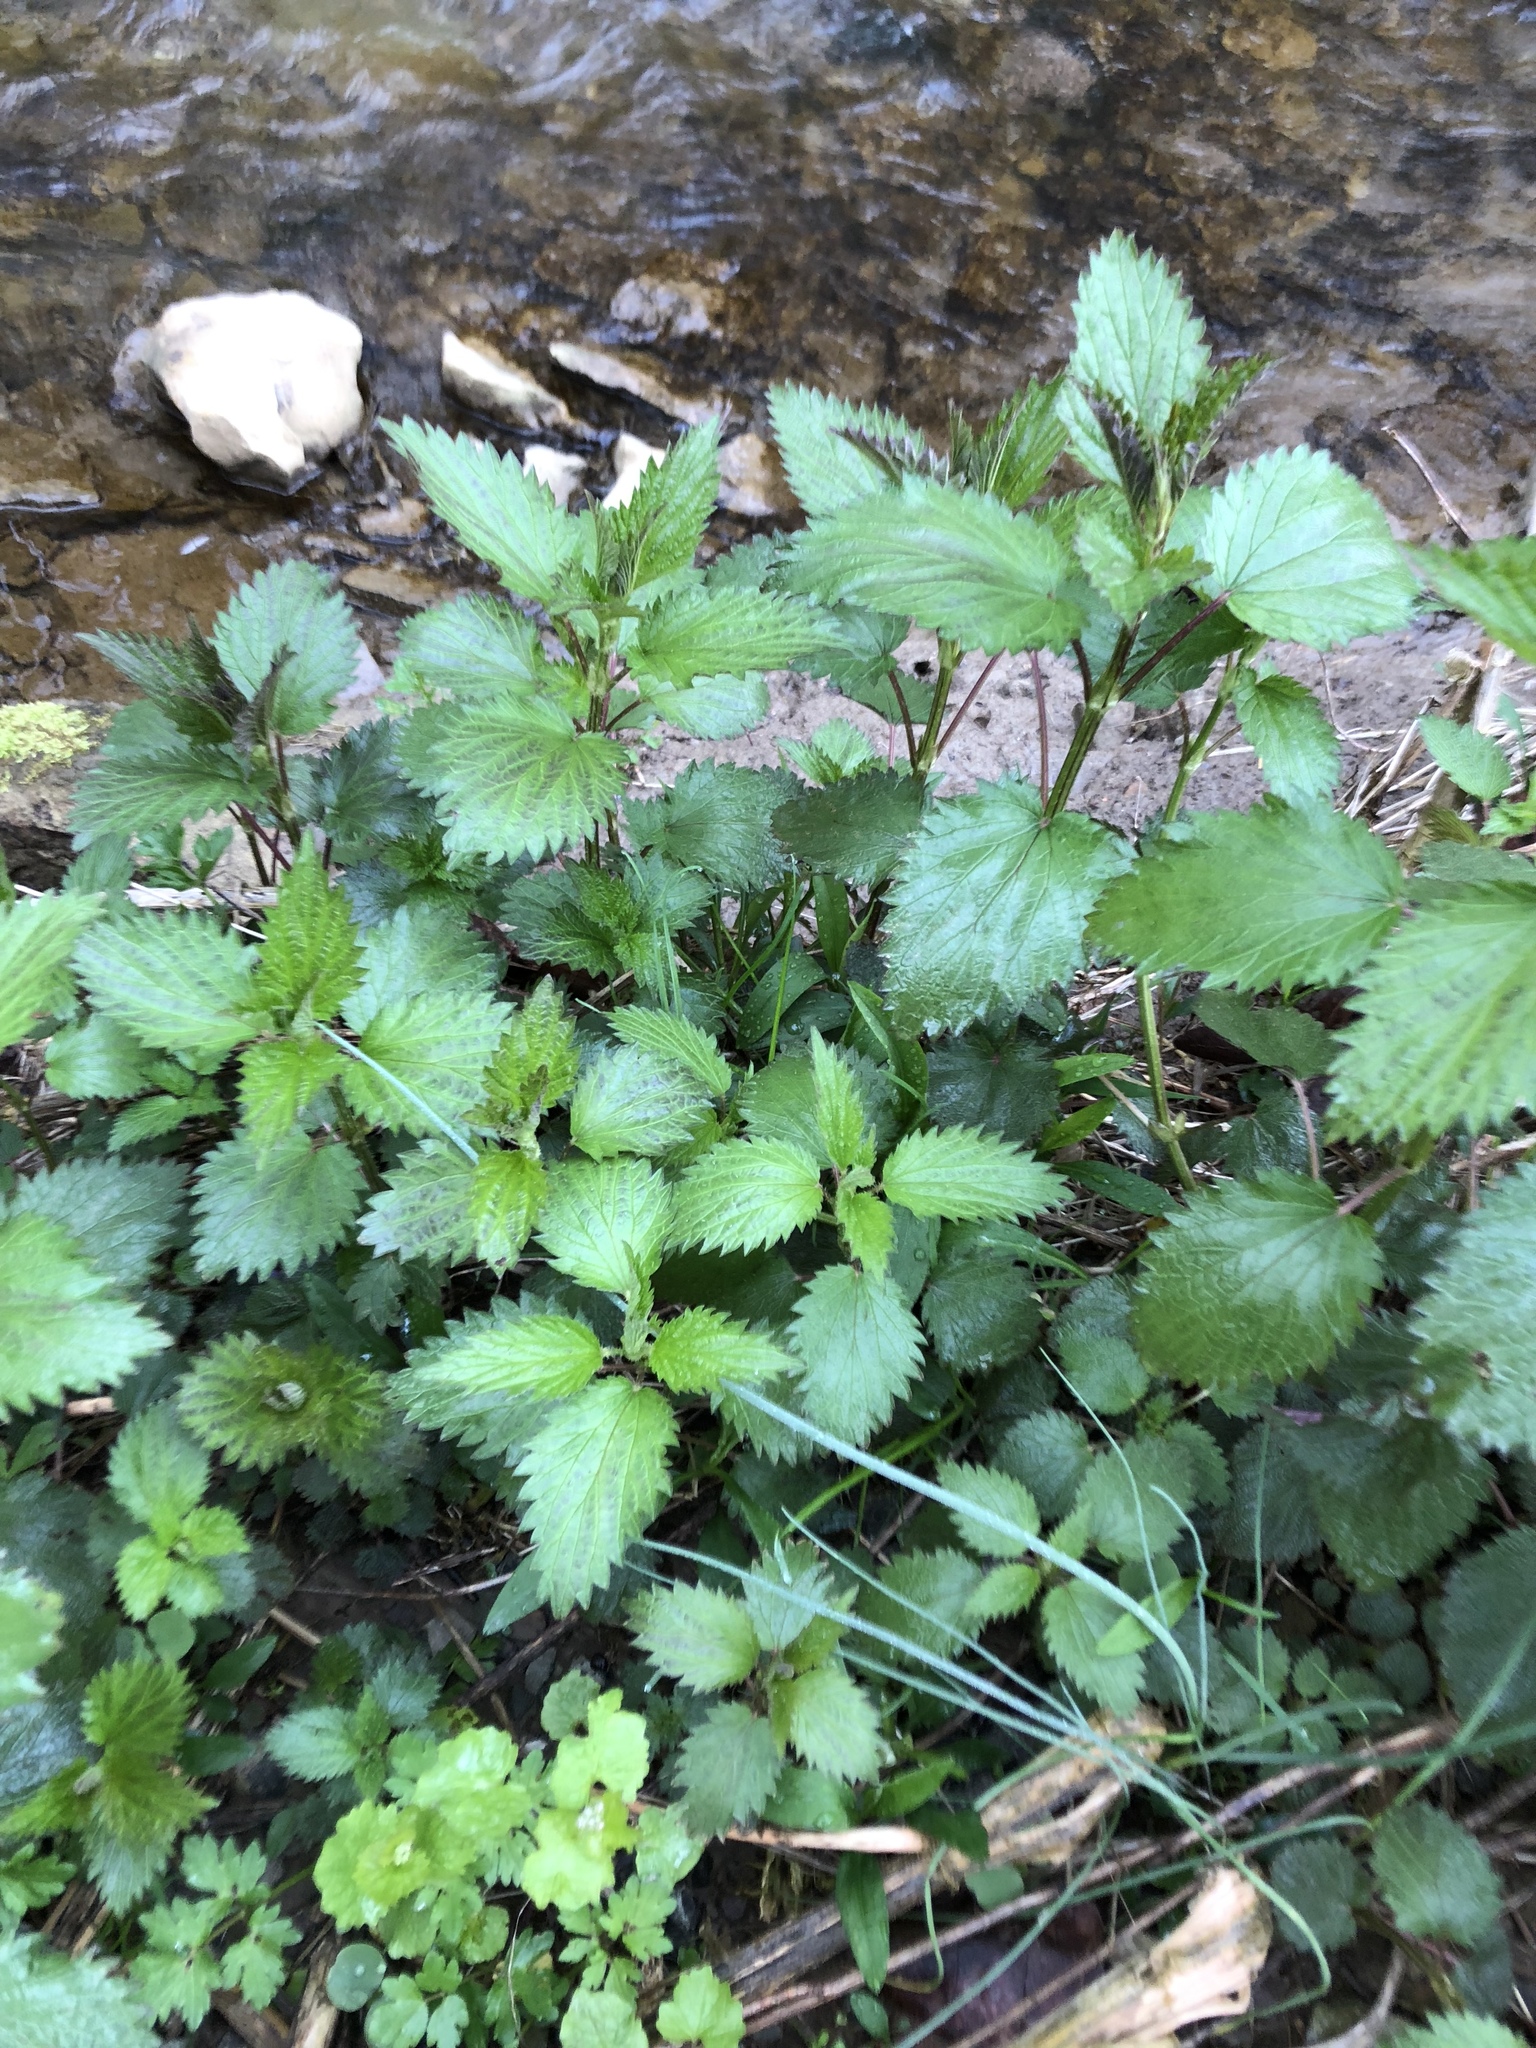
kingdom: Plantae
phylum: Tracheophyta
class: Magnoliopsida
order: Rosales
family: Urticaceae
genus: Urtica
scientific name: Urtica dioica
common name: Common nettle
